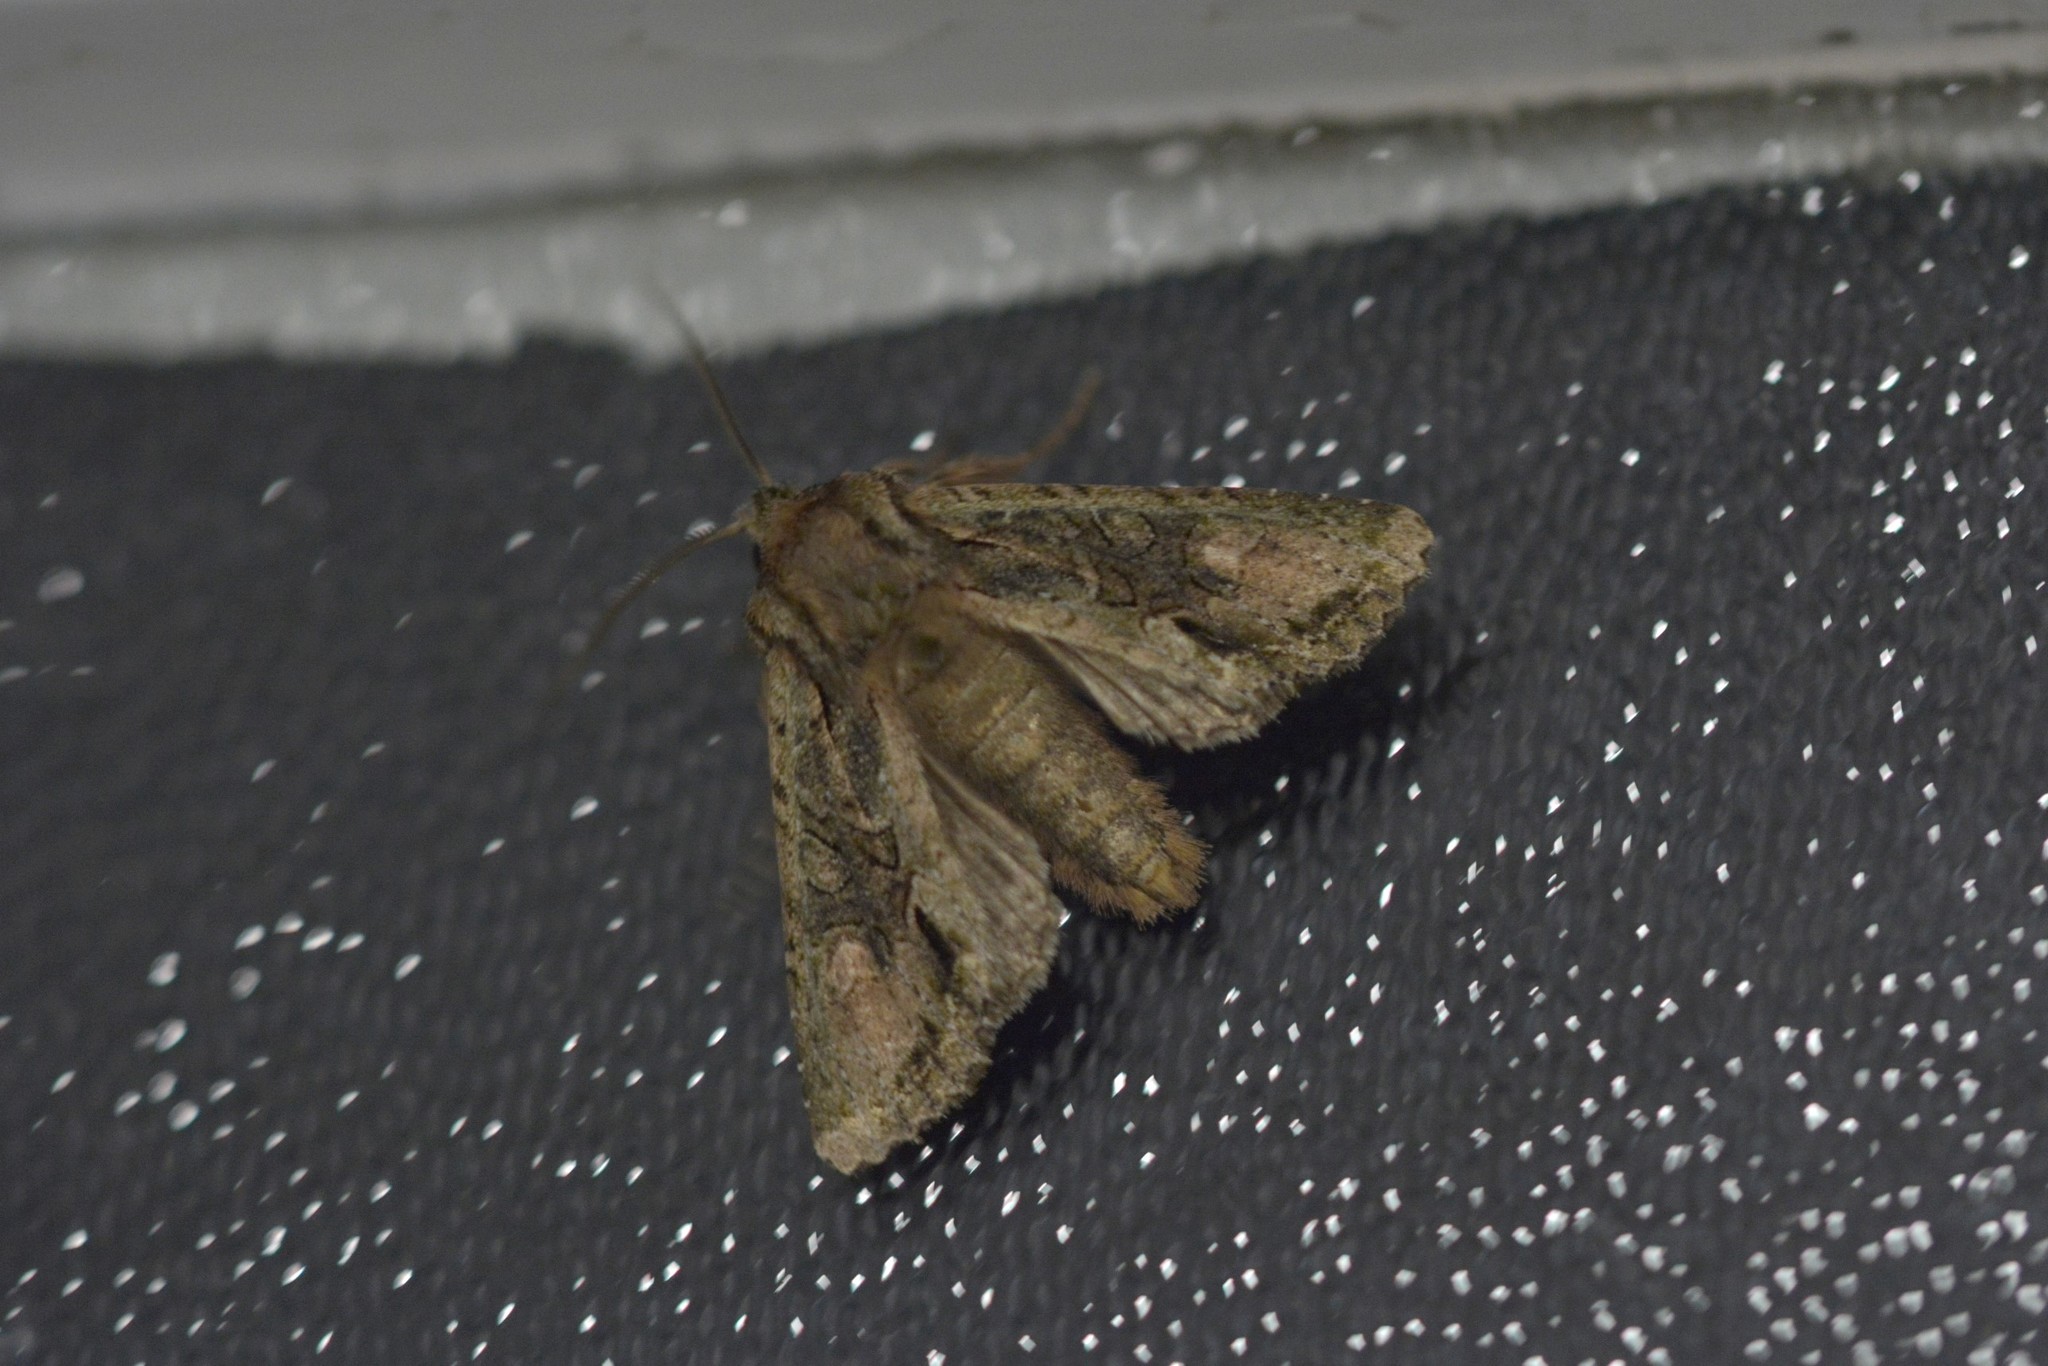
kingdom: Animalia
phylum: Arthropoda
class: Insecta
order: Lepidoptera
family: Noctuidae
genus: Ichneutica
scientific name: Ichneutica mutans
